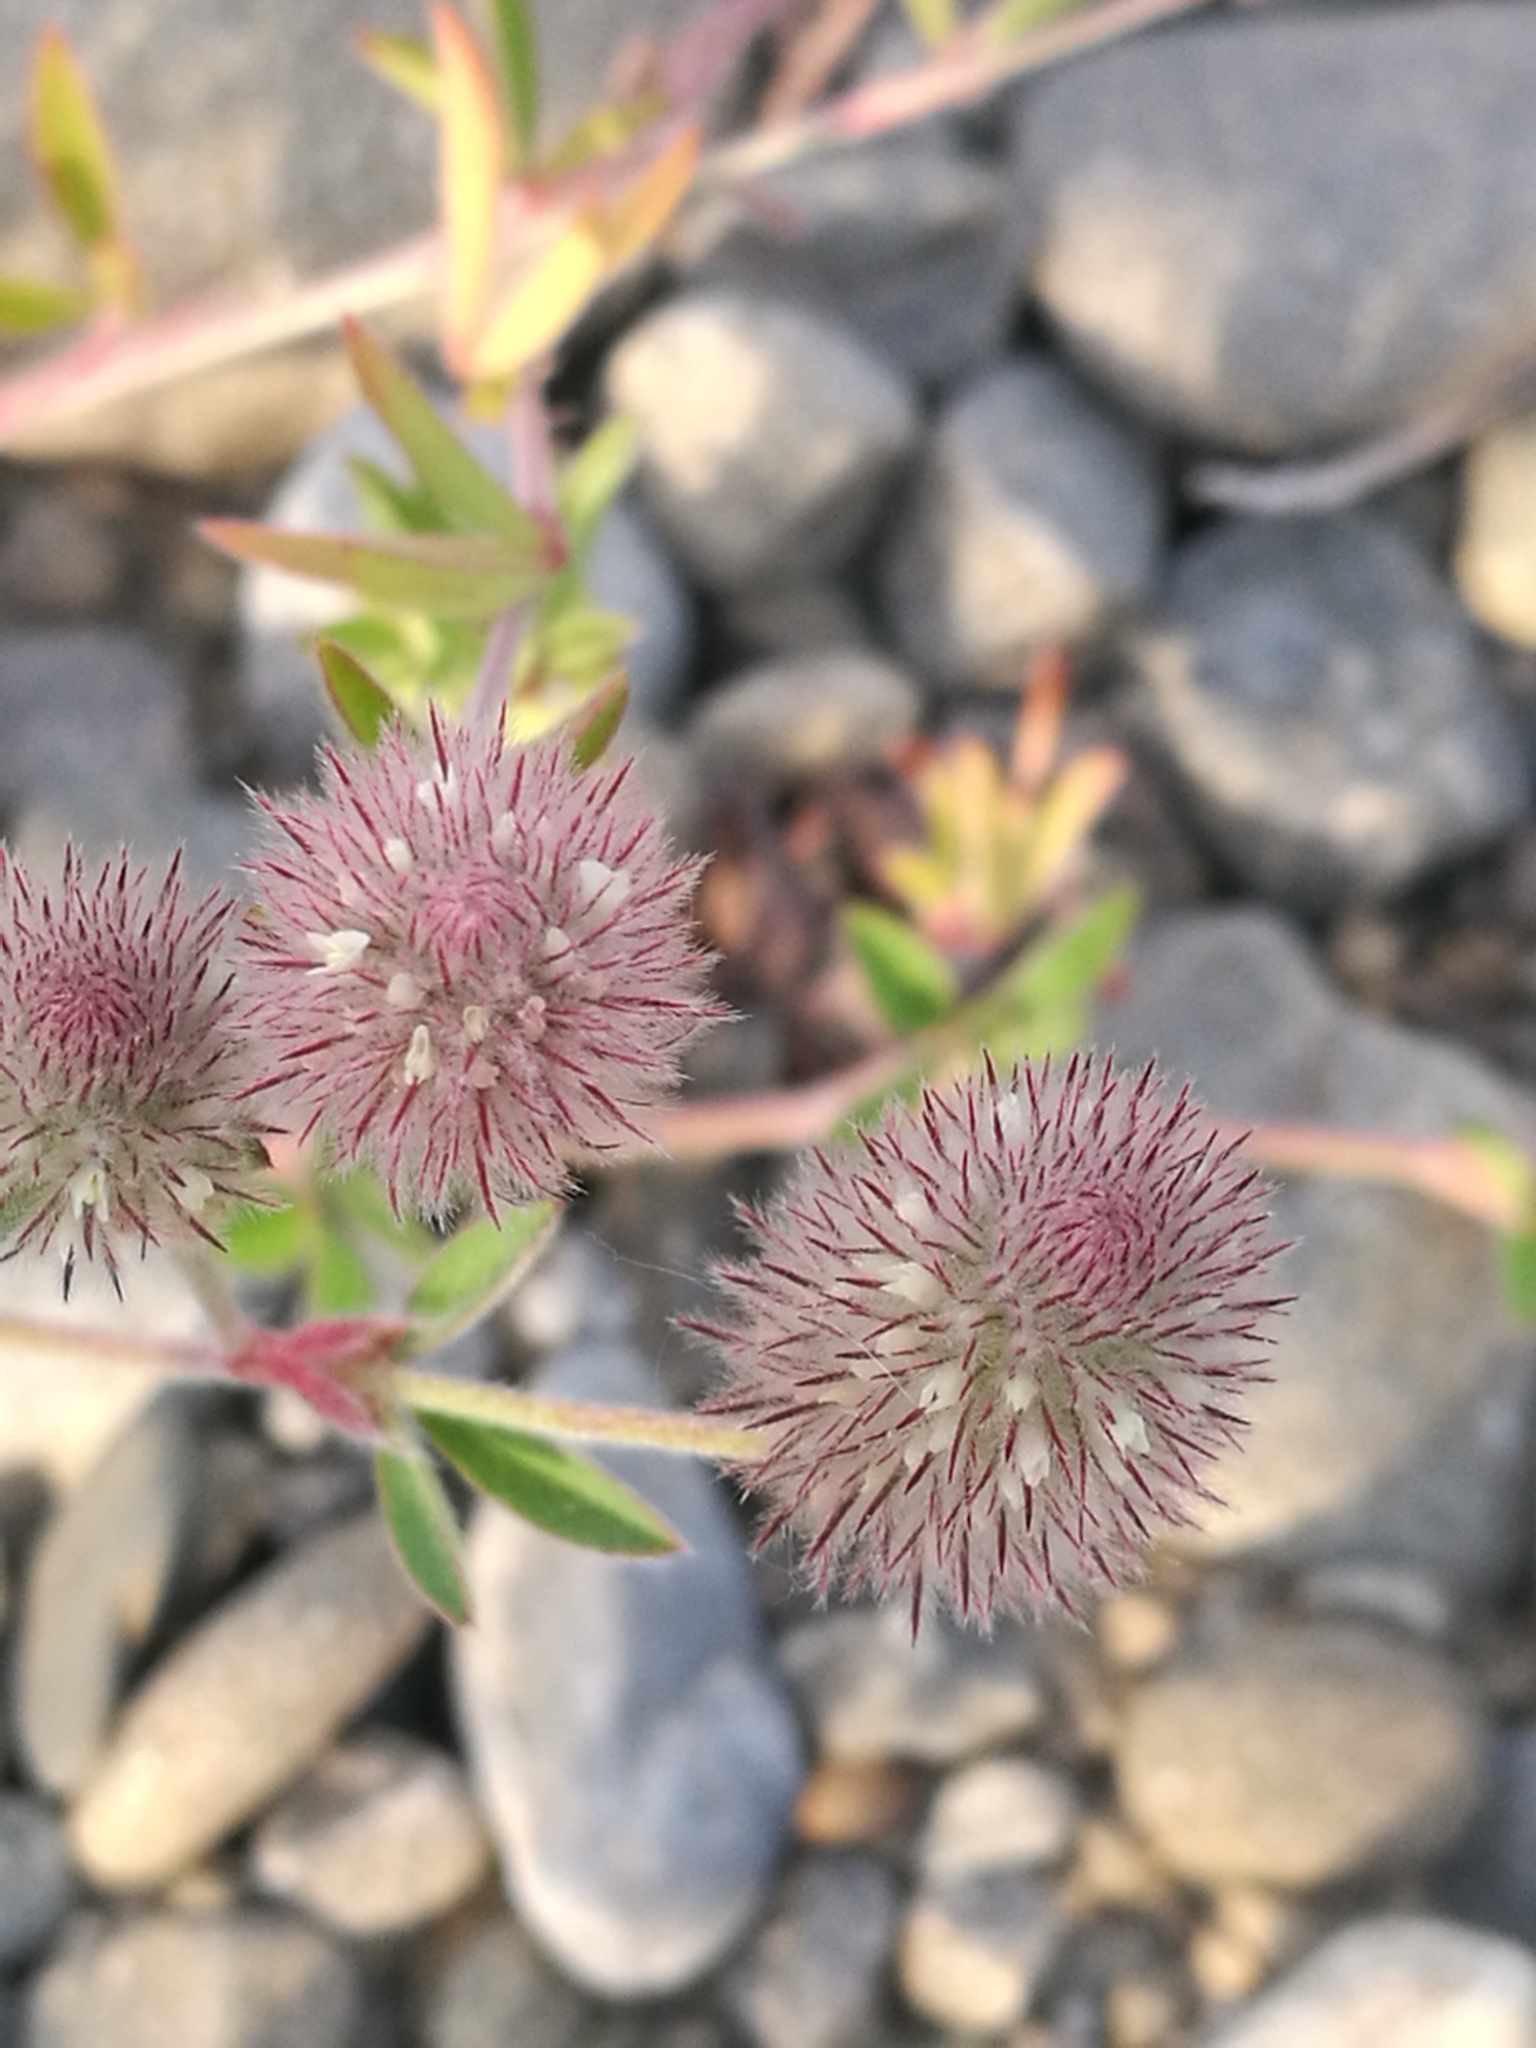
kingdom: Plantae
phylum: Tracheophyta
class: Magnoliopsida
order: Fabales
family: Fabaceae
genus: Trifolium
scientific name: Trifolium arvense
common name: Hare's-foot clover
